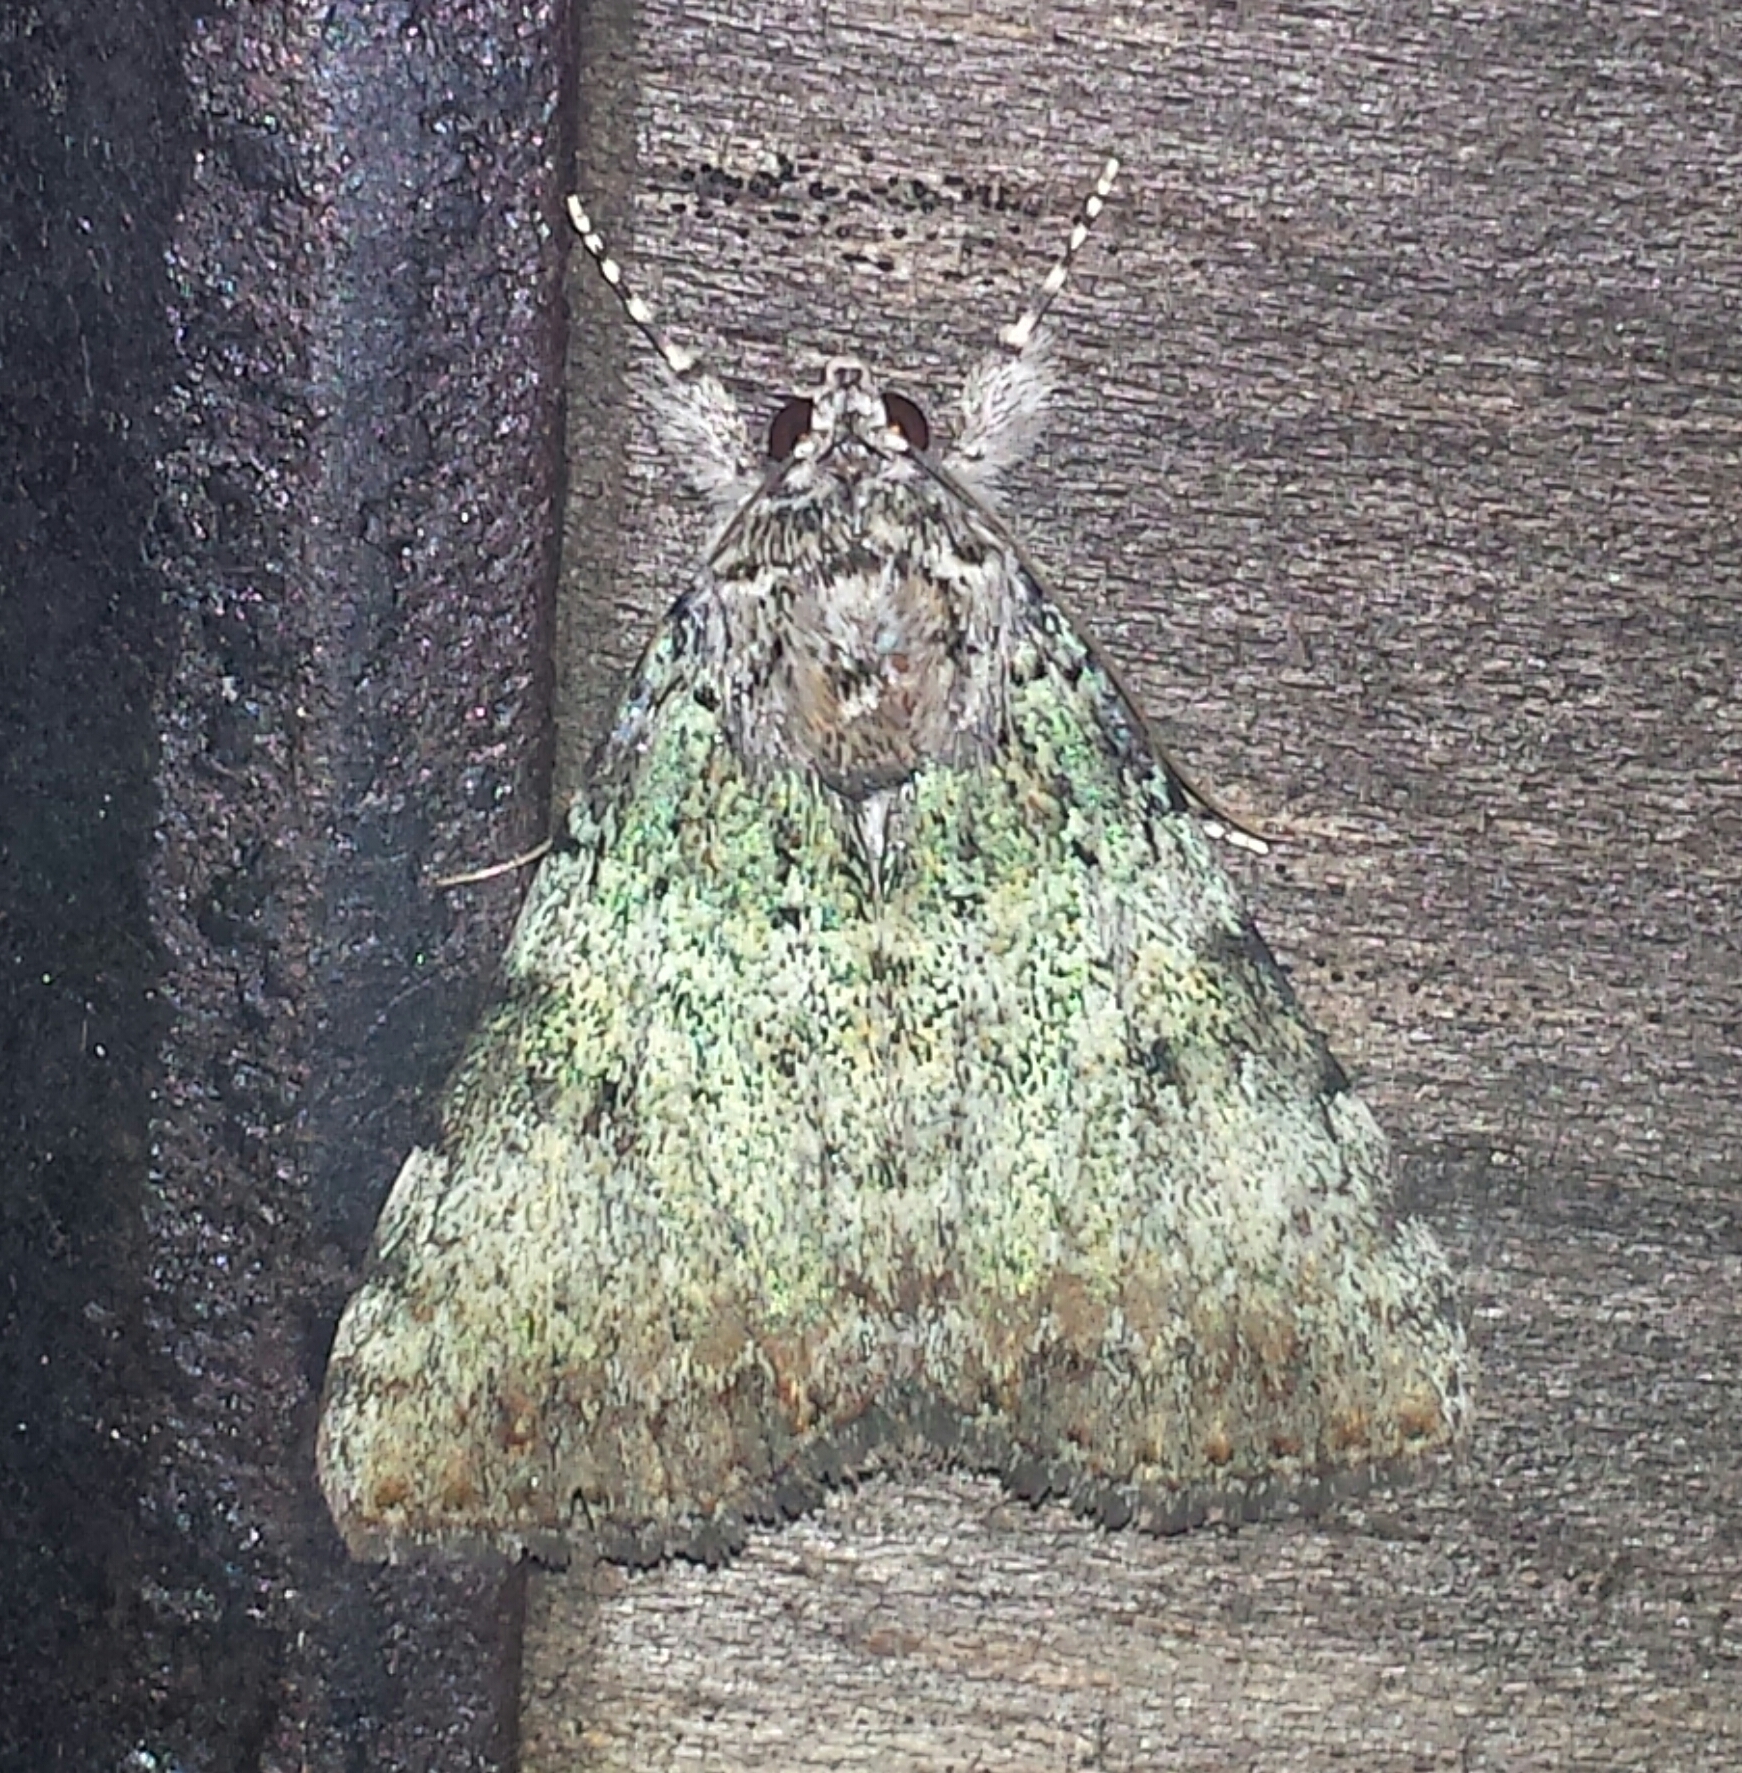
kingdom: Animalia
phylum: Arthropoda
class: Insecta
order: Lepidoptera
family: Noctuidae
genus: Leuconycta
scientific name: Leuconycta diphteroides
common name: Green leuconycta moth
